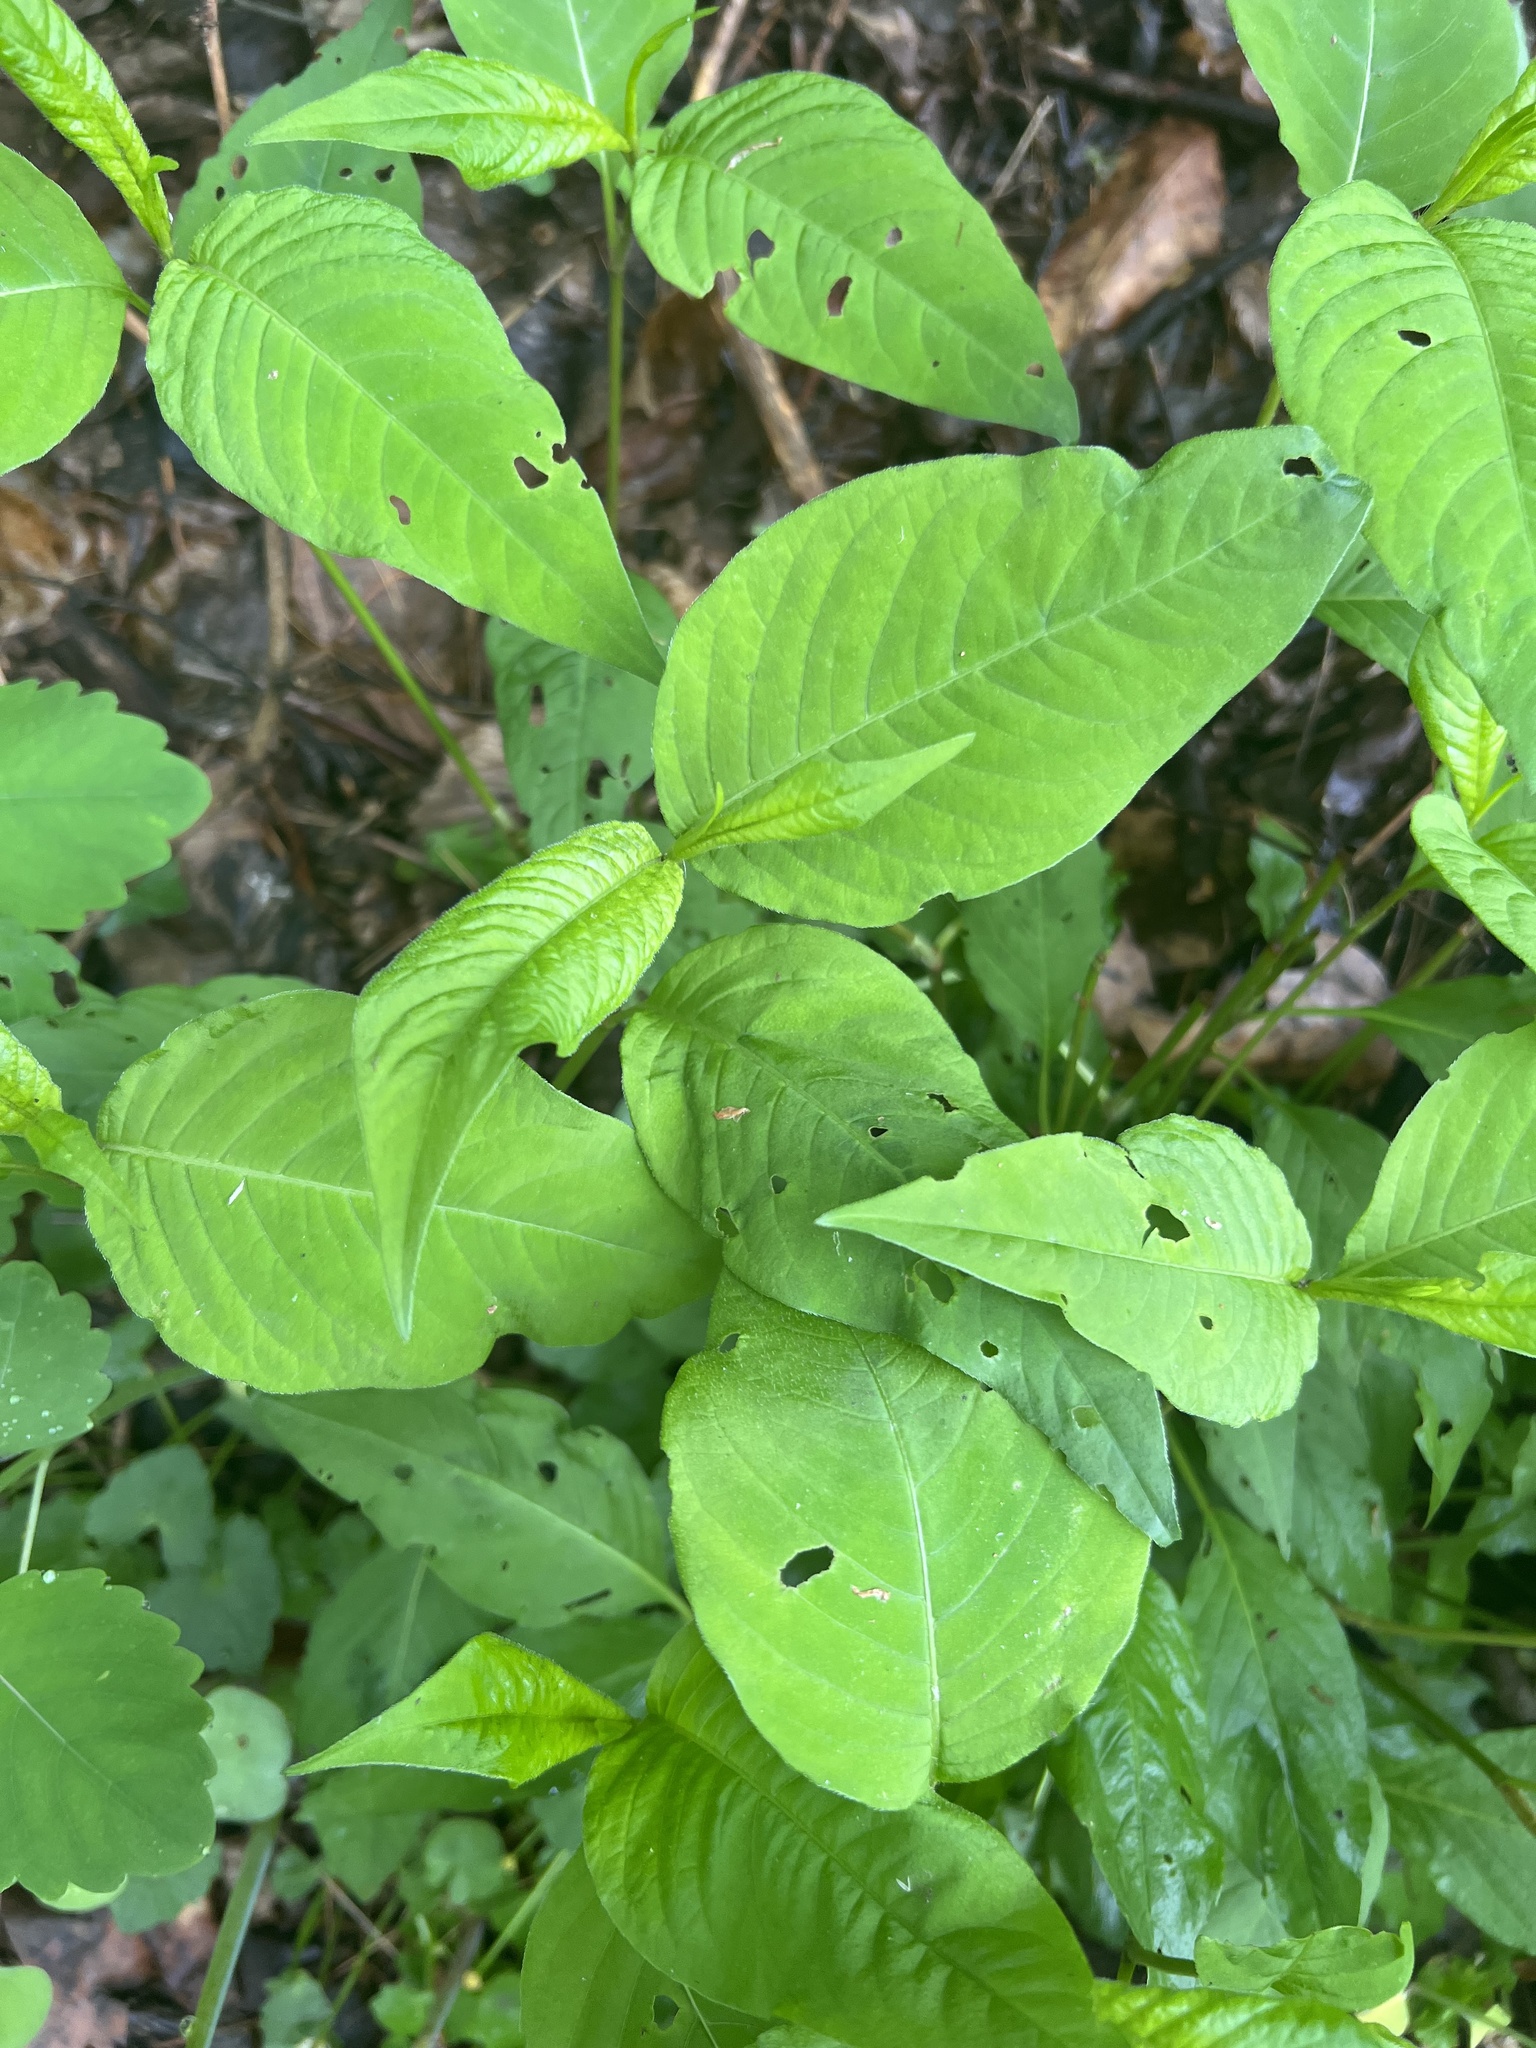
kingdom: Plantae
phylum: Tracheophyta
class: Magnoliopsida
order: Caryophyllales
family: Polygonaceae
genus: Persicaria
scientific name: Persicaria virginiana
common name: Jumpseed
